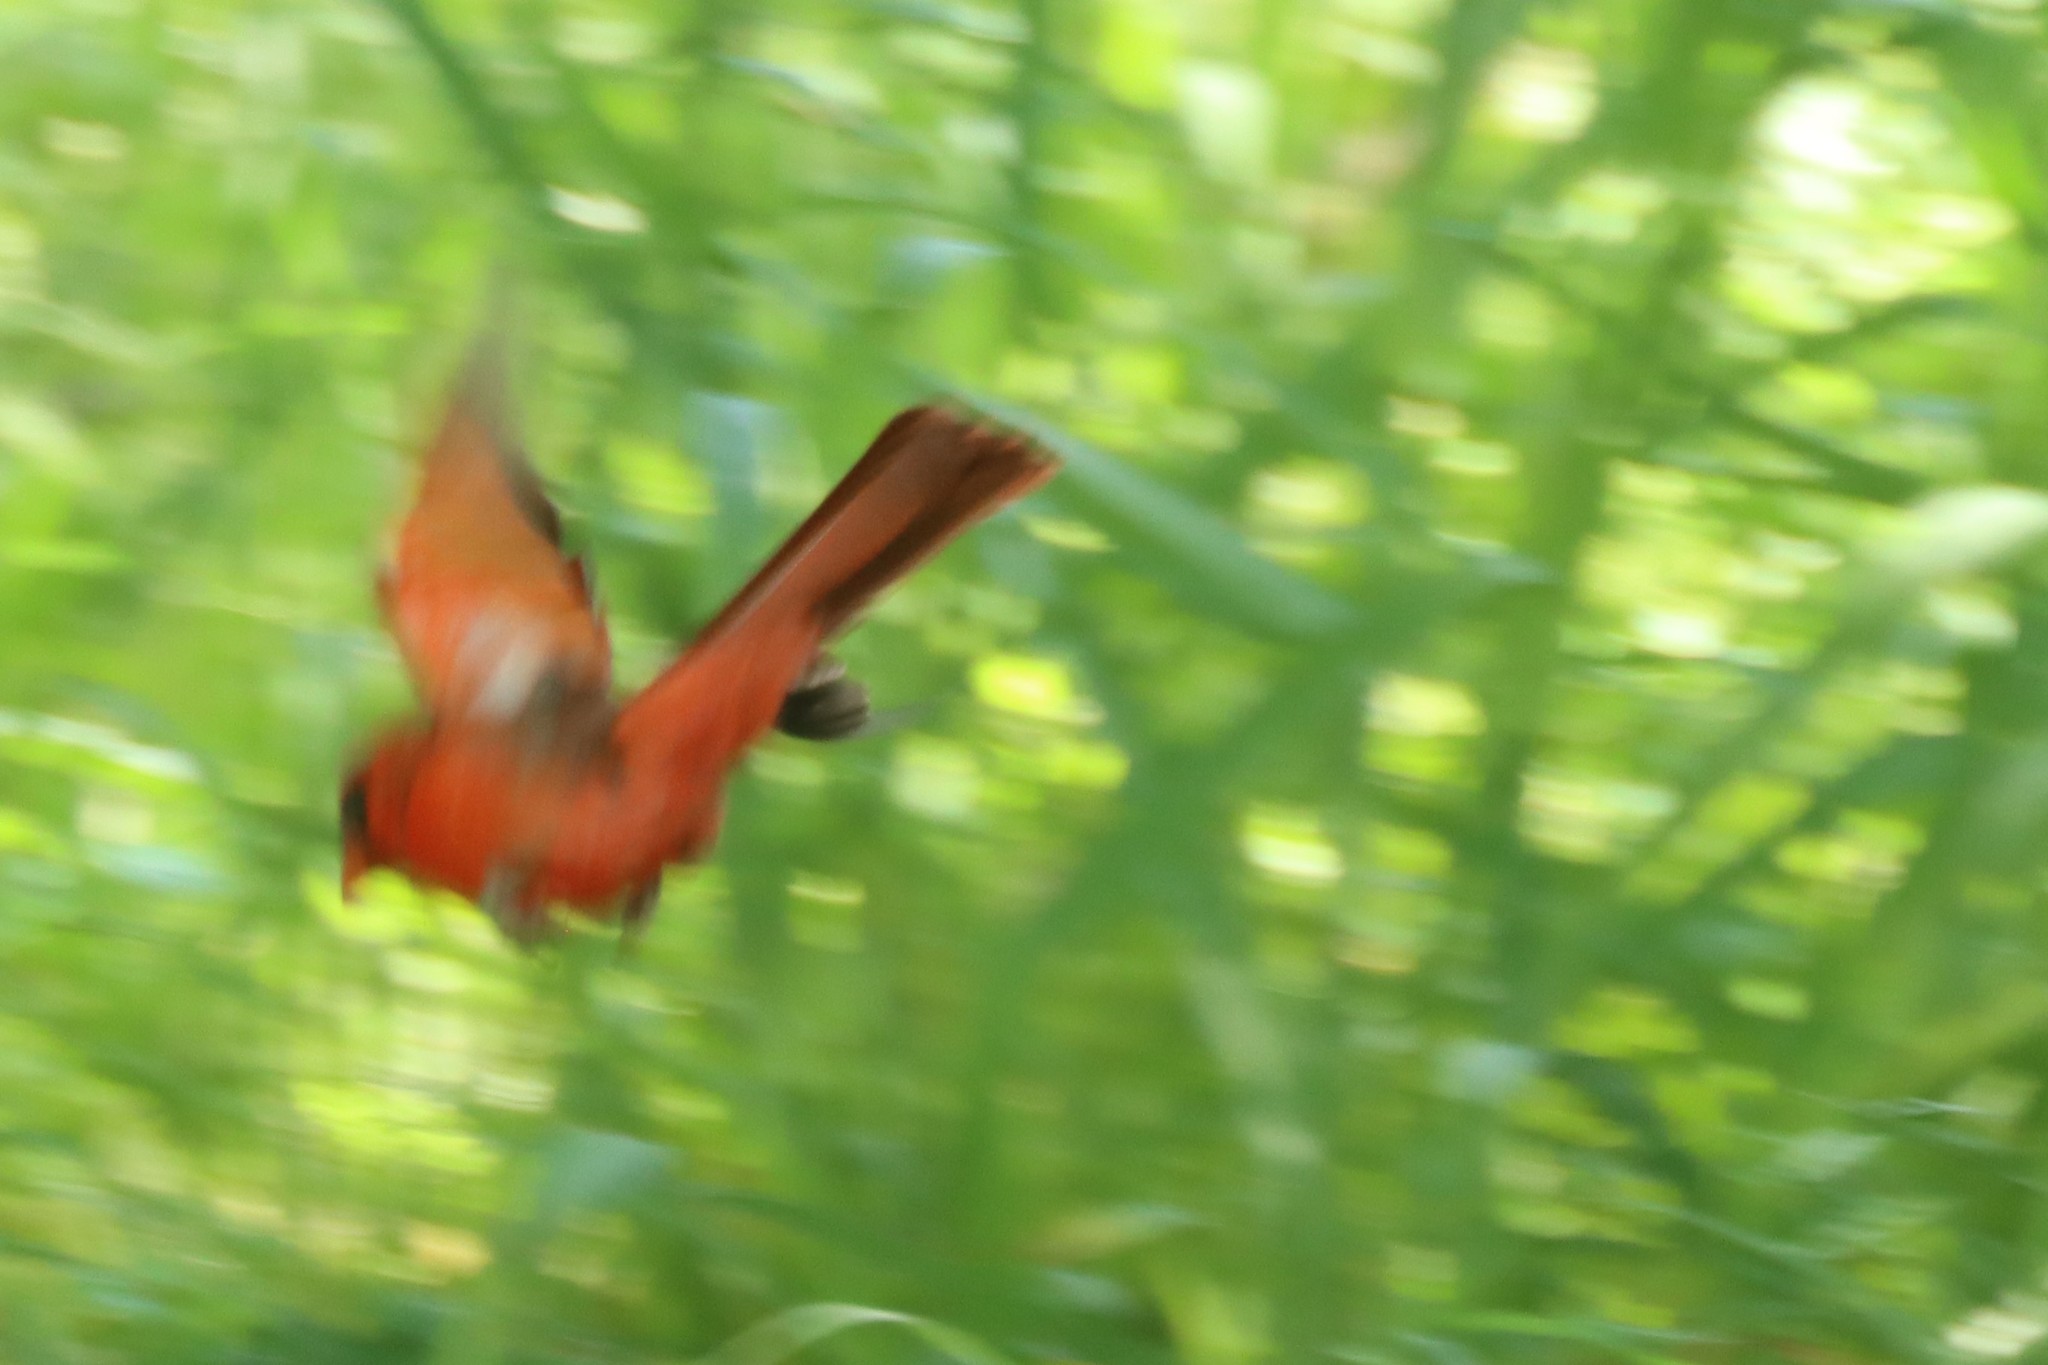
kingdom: Animalia
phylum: Chordata
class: Aves
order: Passeriformes
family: Cardinalidae
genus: Cardinalis
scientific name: Cardinalis cardinalis
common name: Northern cardinal
